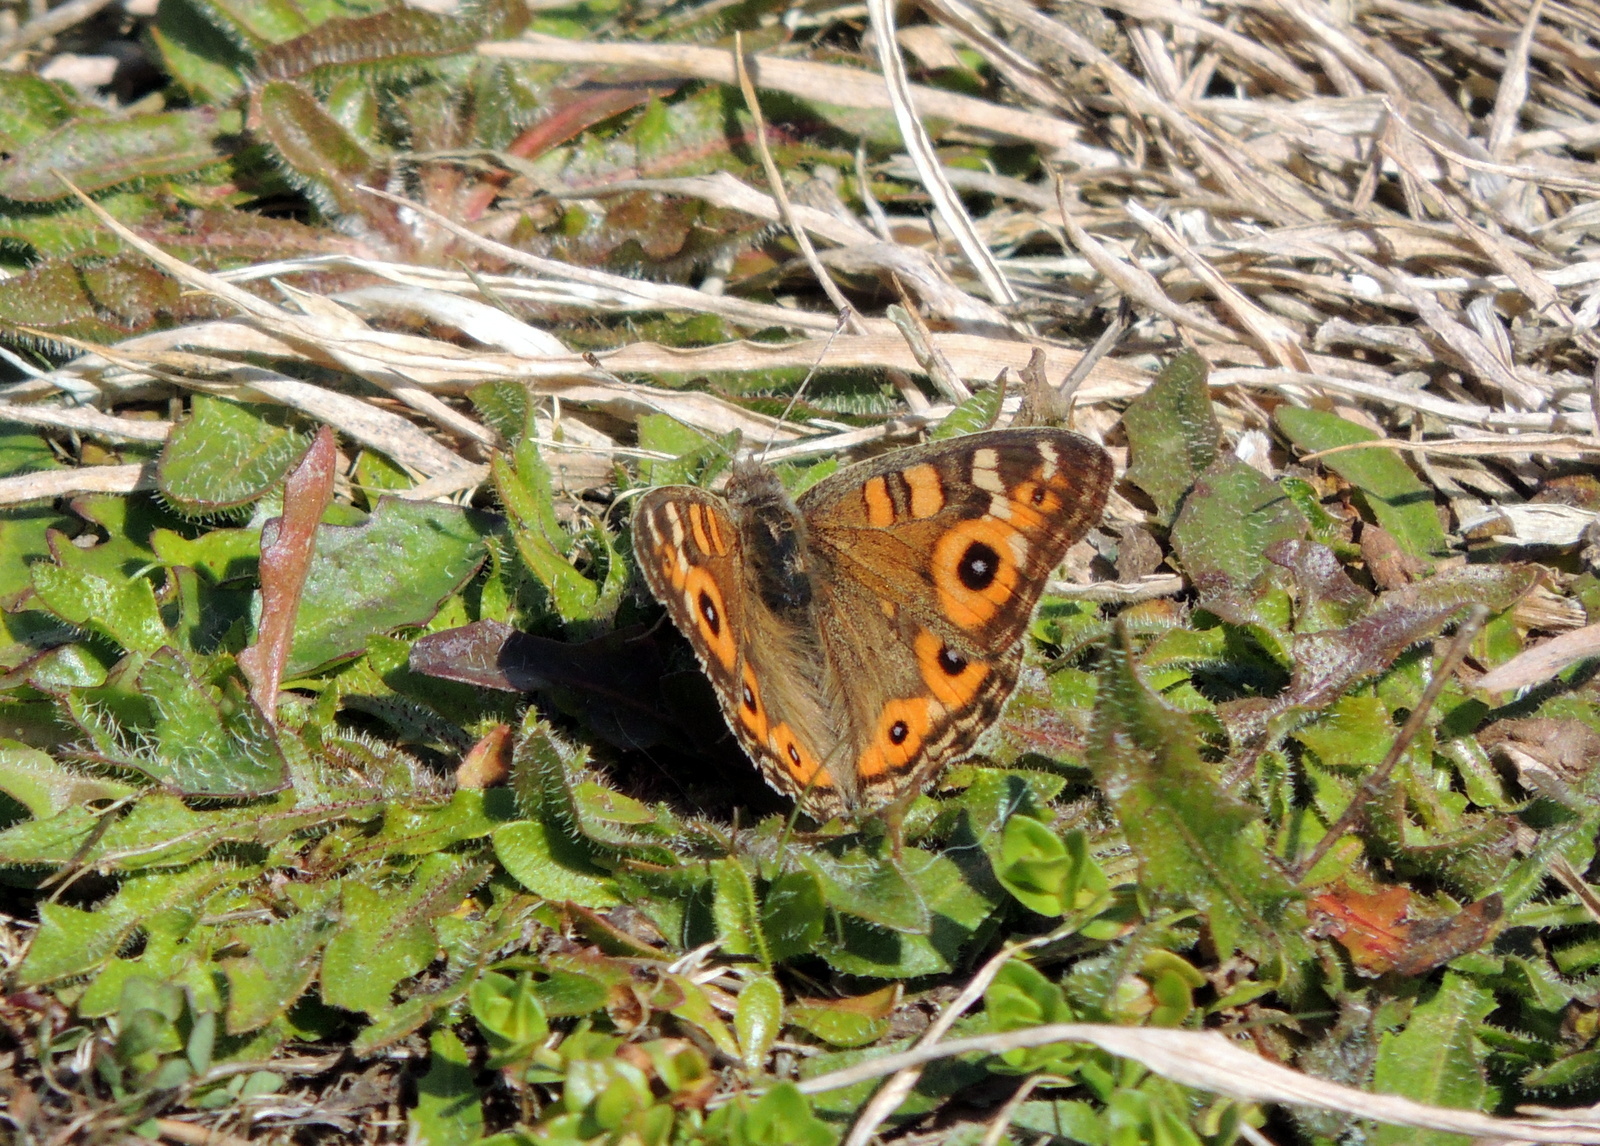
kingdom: Animalia
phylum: Arthropoda
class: Insecta
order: Lepidoptera
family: Nymphalidae
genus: Junonia
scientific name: Junonia villida
